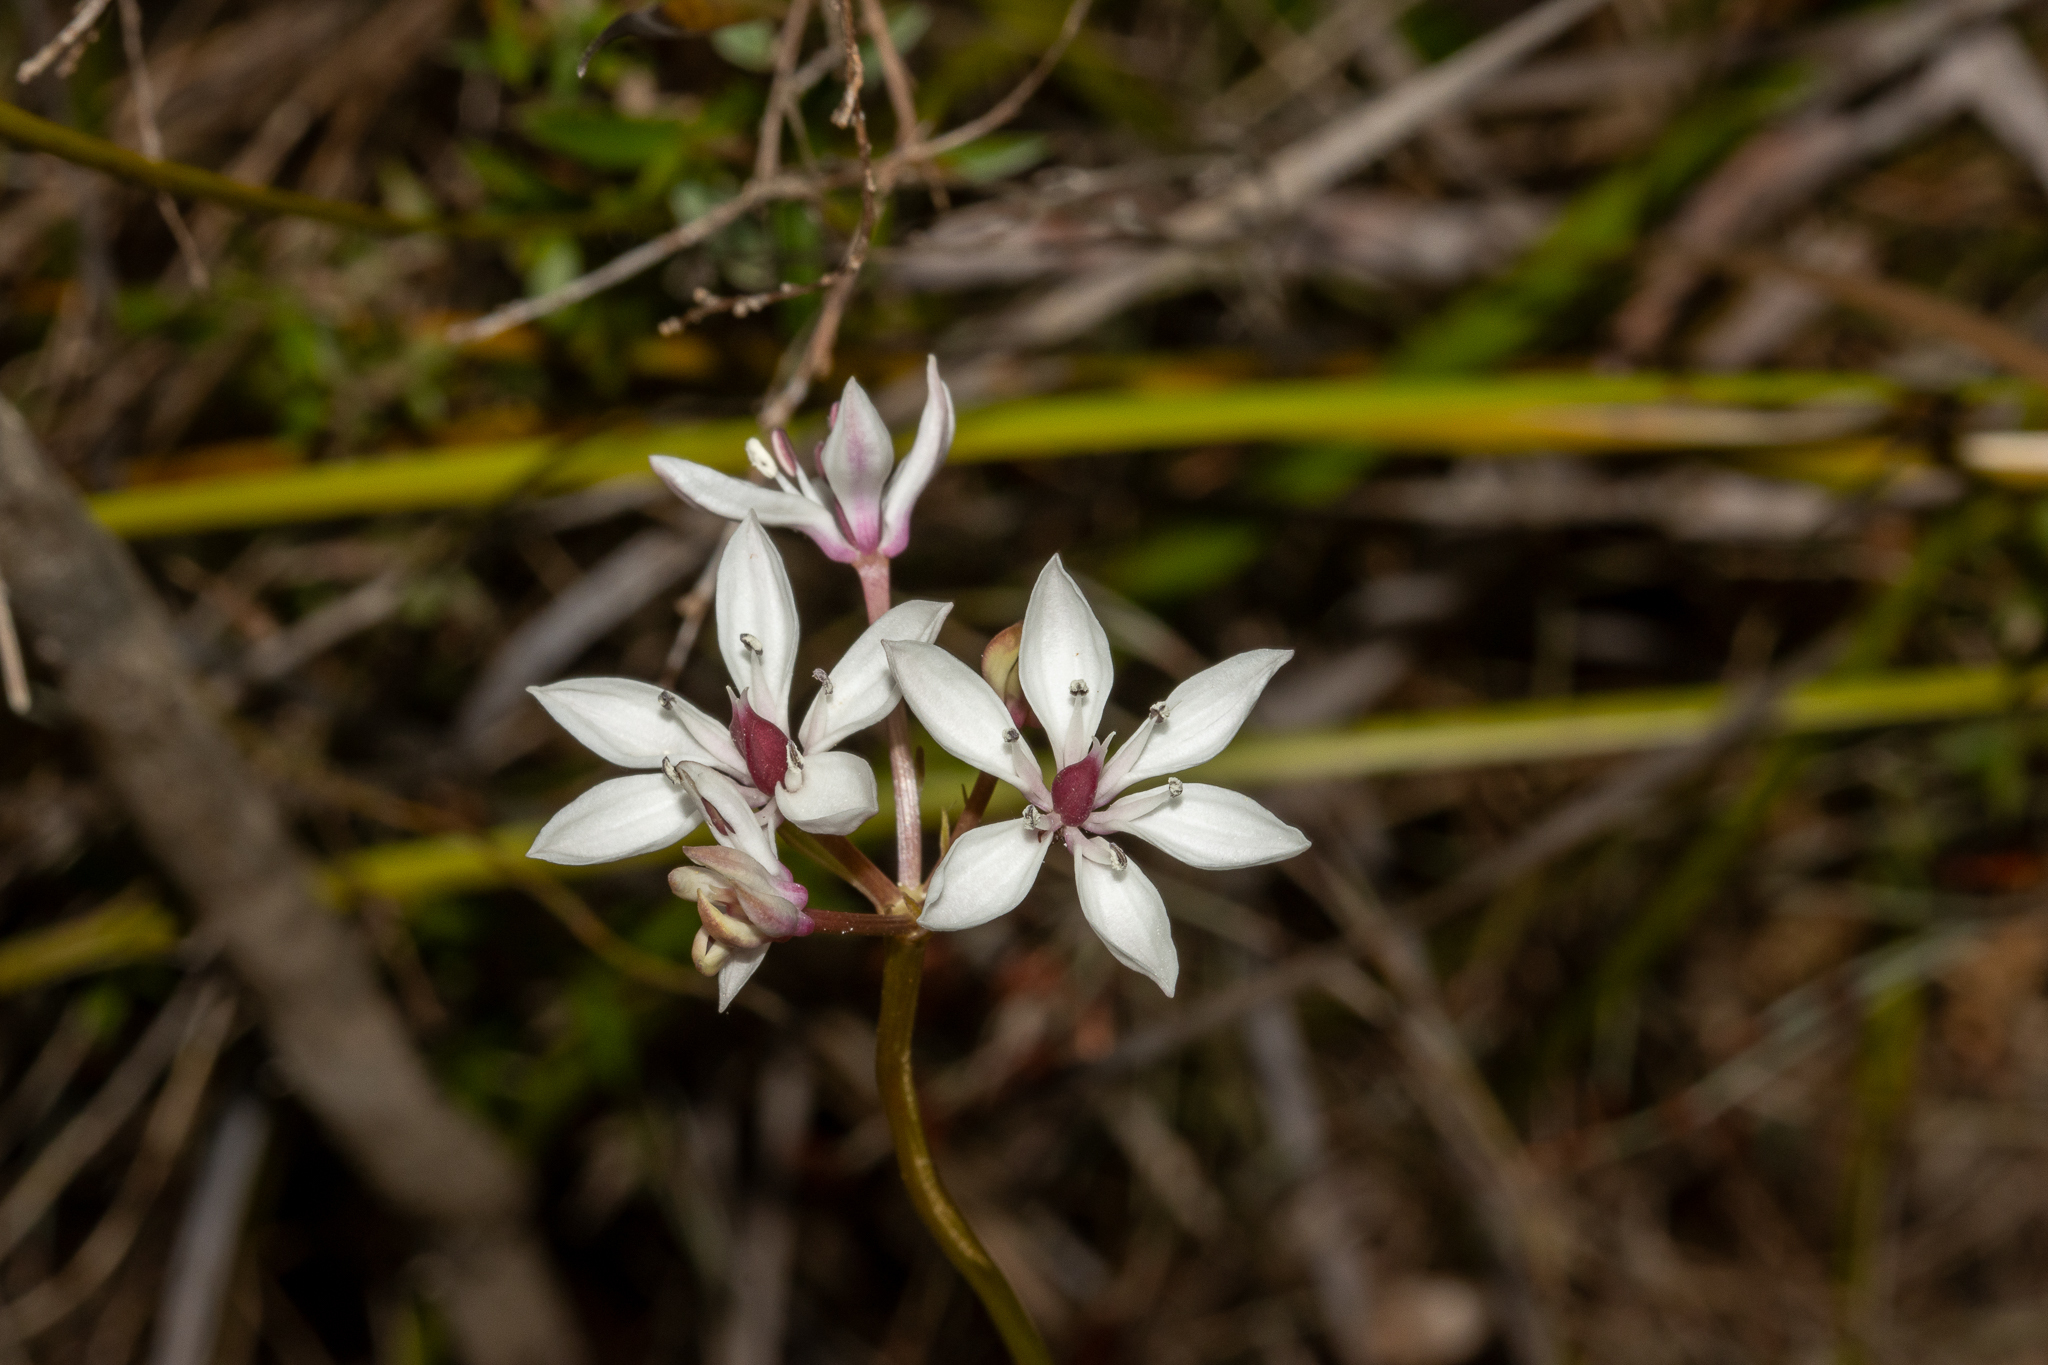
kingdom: Plantae
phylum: Tracheophyta
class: Liliopsida
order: Liliales
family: Colchicaceae
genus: Burchardia
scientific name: Burchardia umbellata
